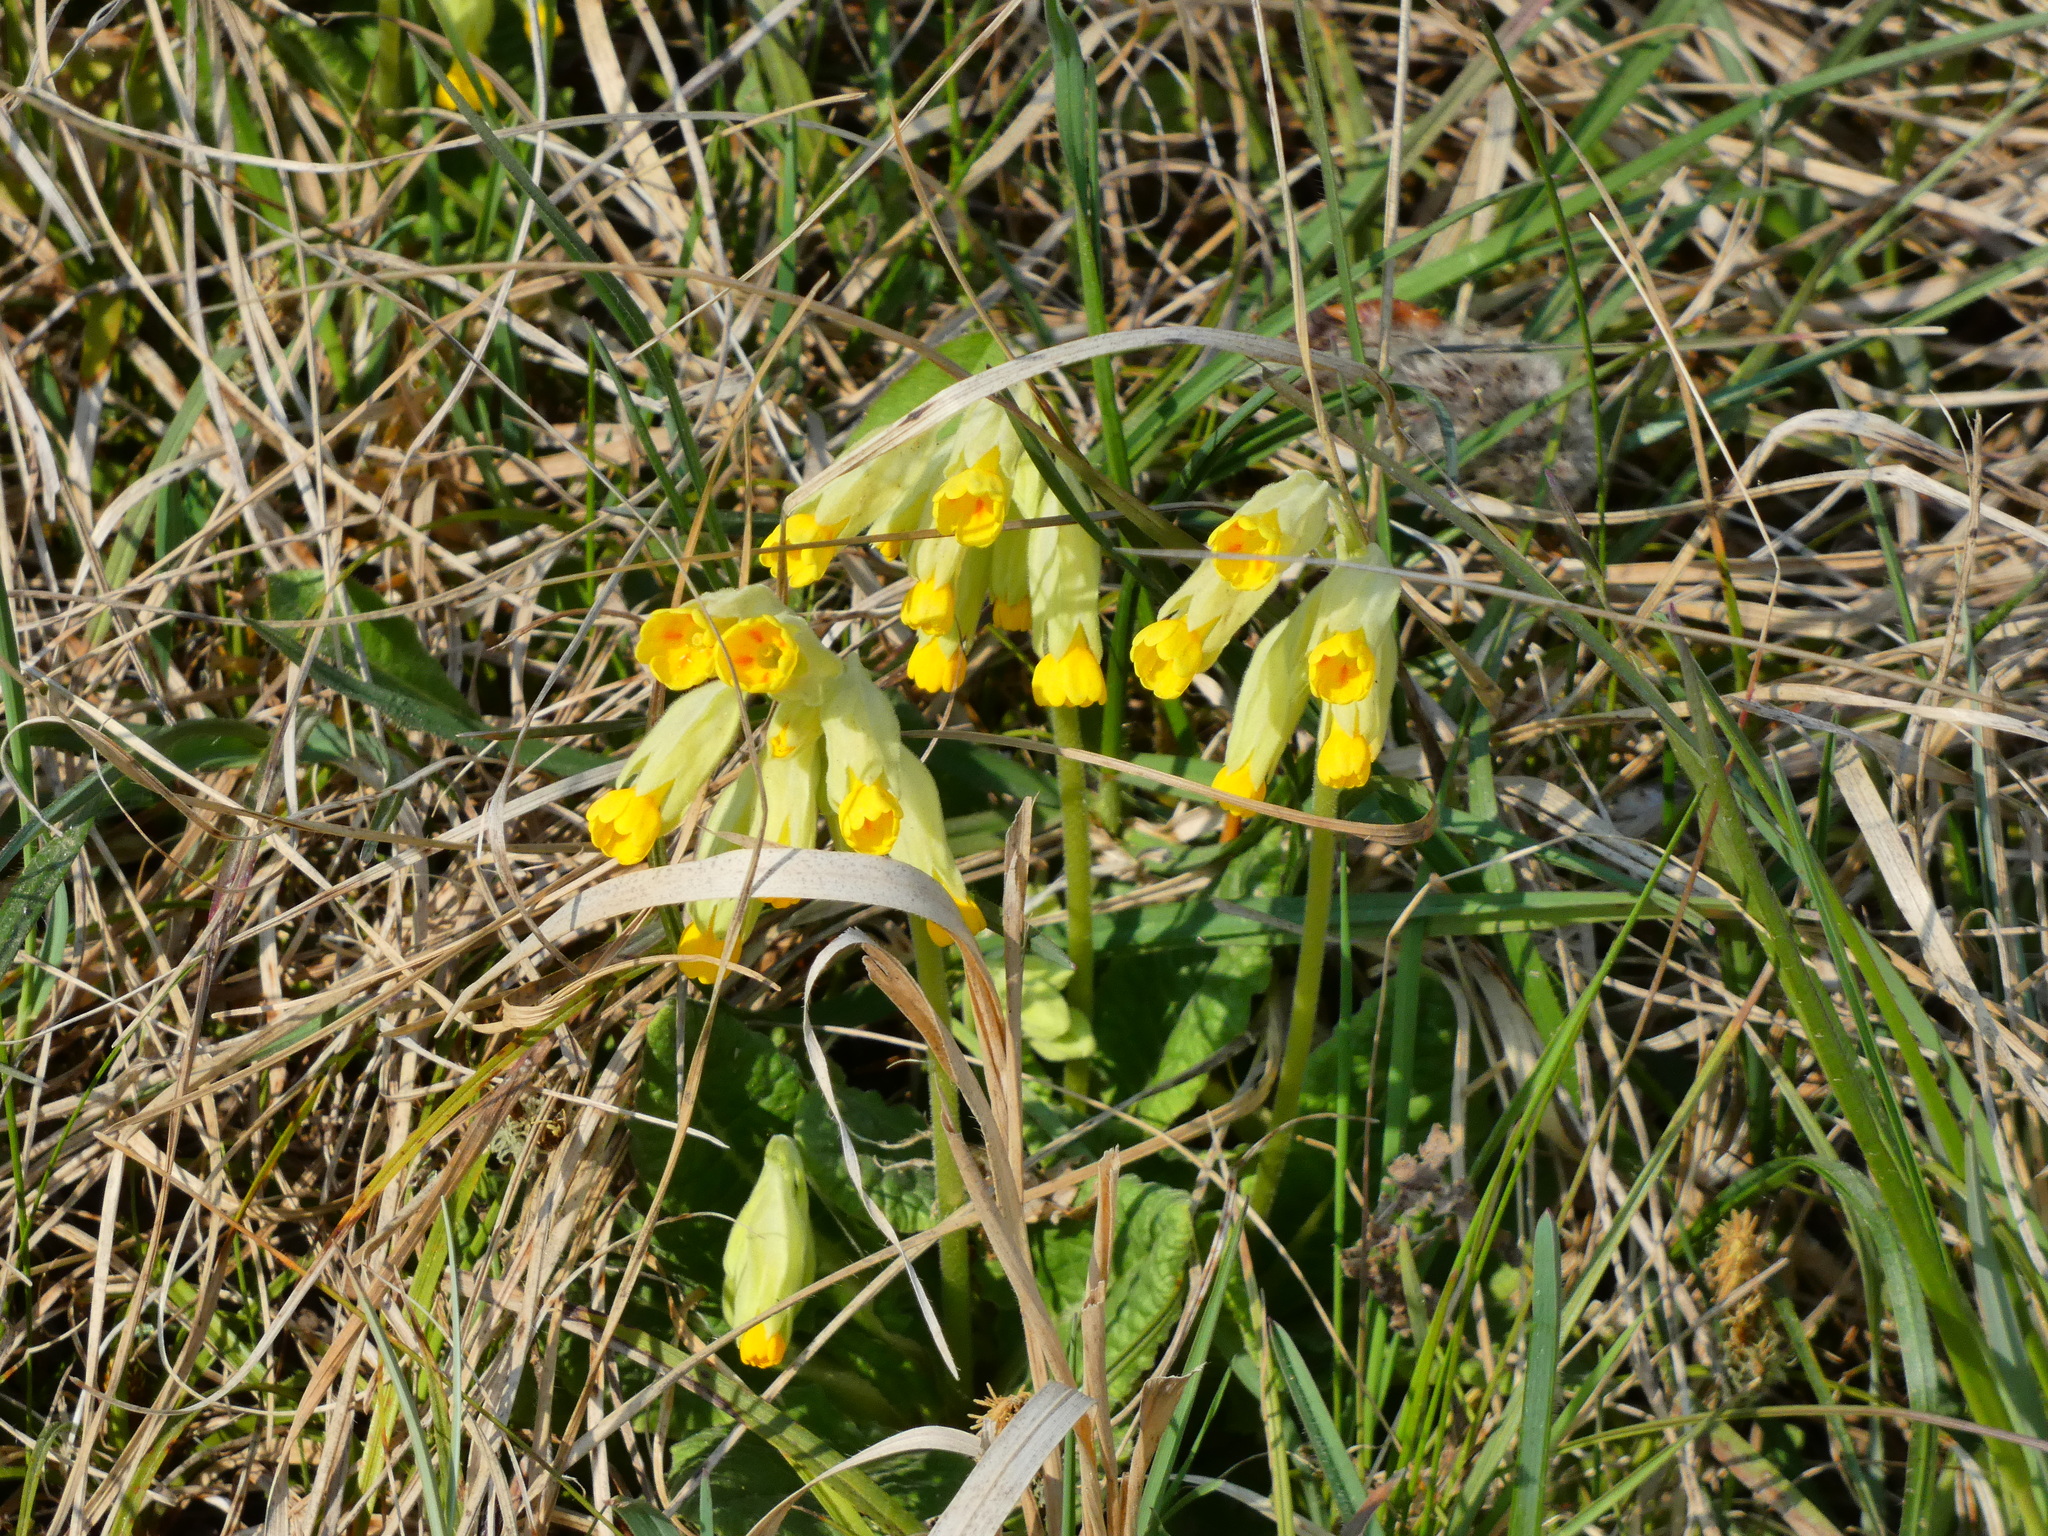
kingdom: Plantae
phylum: Tracheophyta
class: Magnoliopsida
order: Ericales
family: Primulaceae
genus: Primula
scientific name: Primula veris
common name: Cowslip
